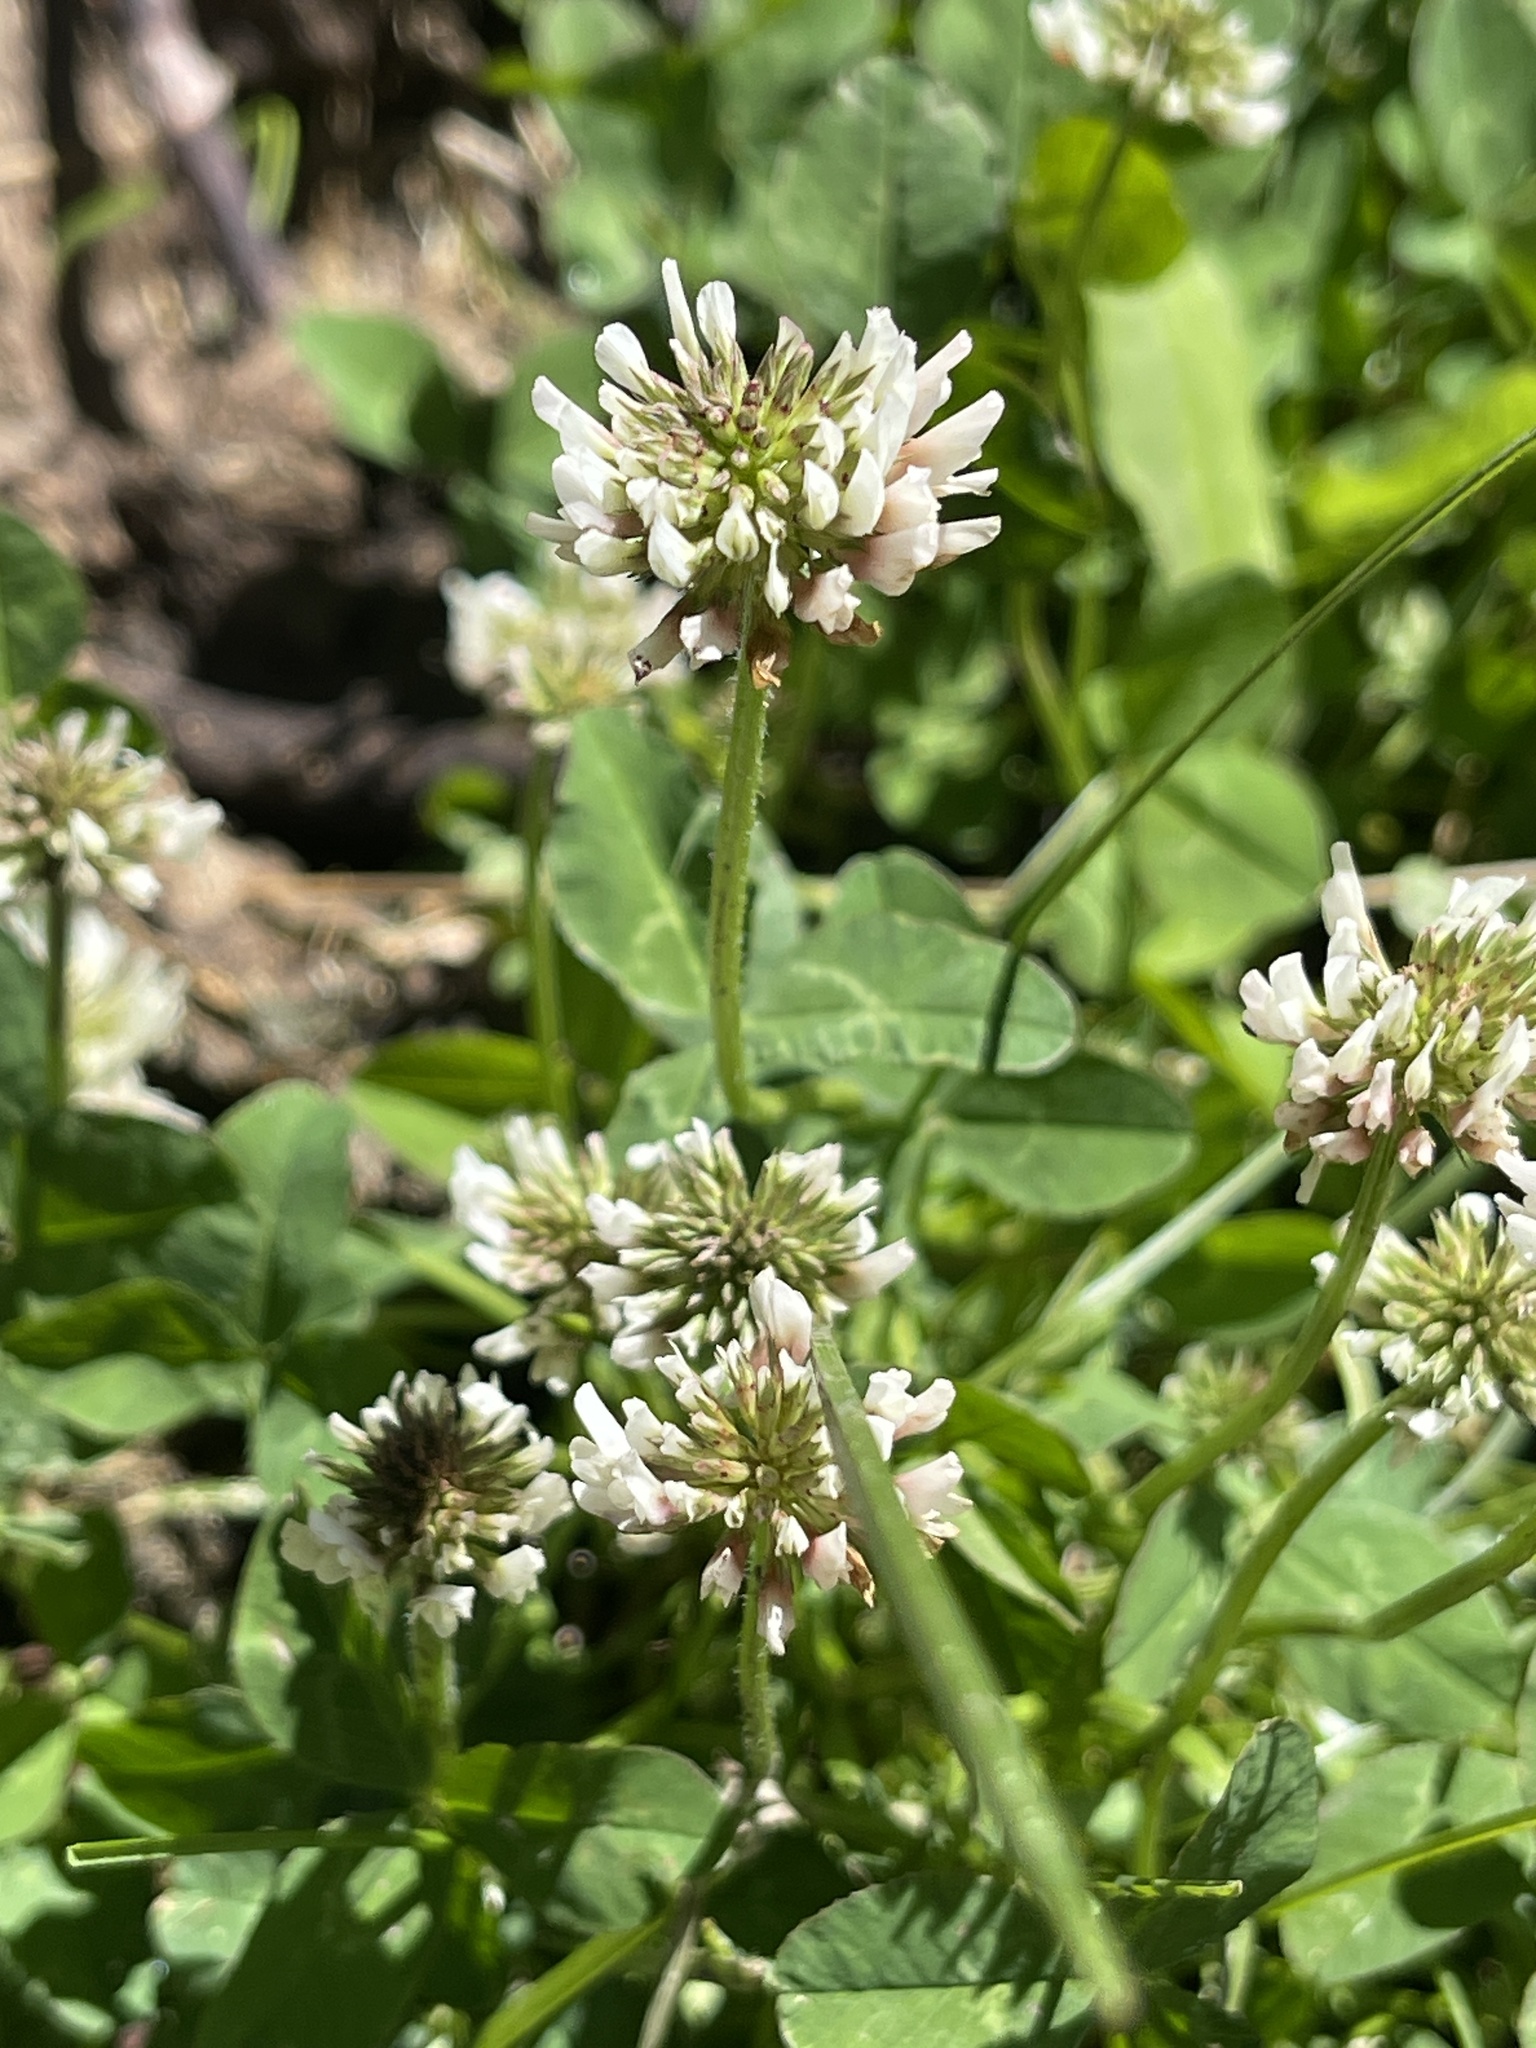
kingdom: Plantae
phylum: Tracheophyta
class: Magnoliopsida
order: Fabales
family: Fabaceae
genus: Trifolium
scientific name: Trifolium repens
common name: White clover
